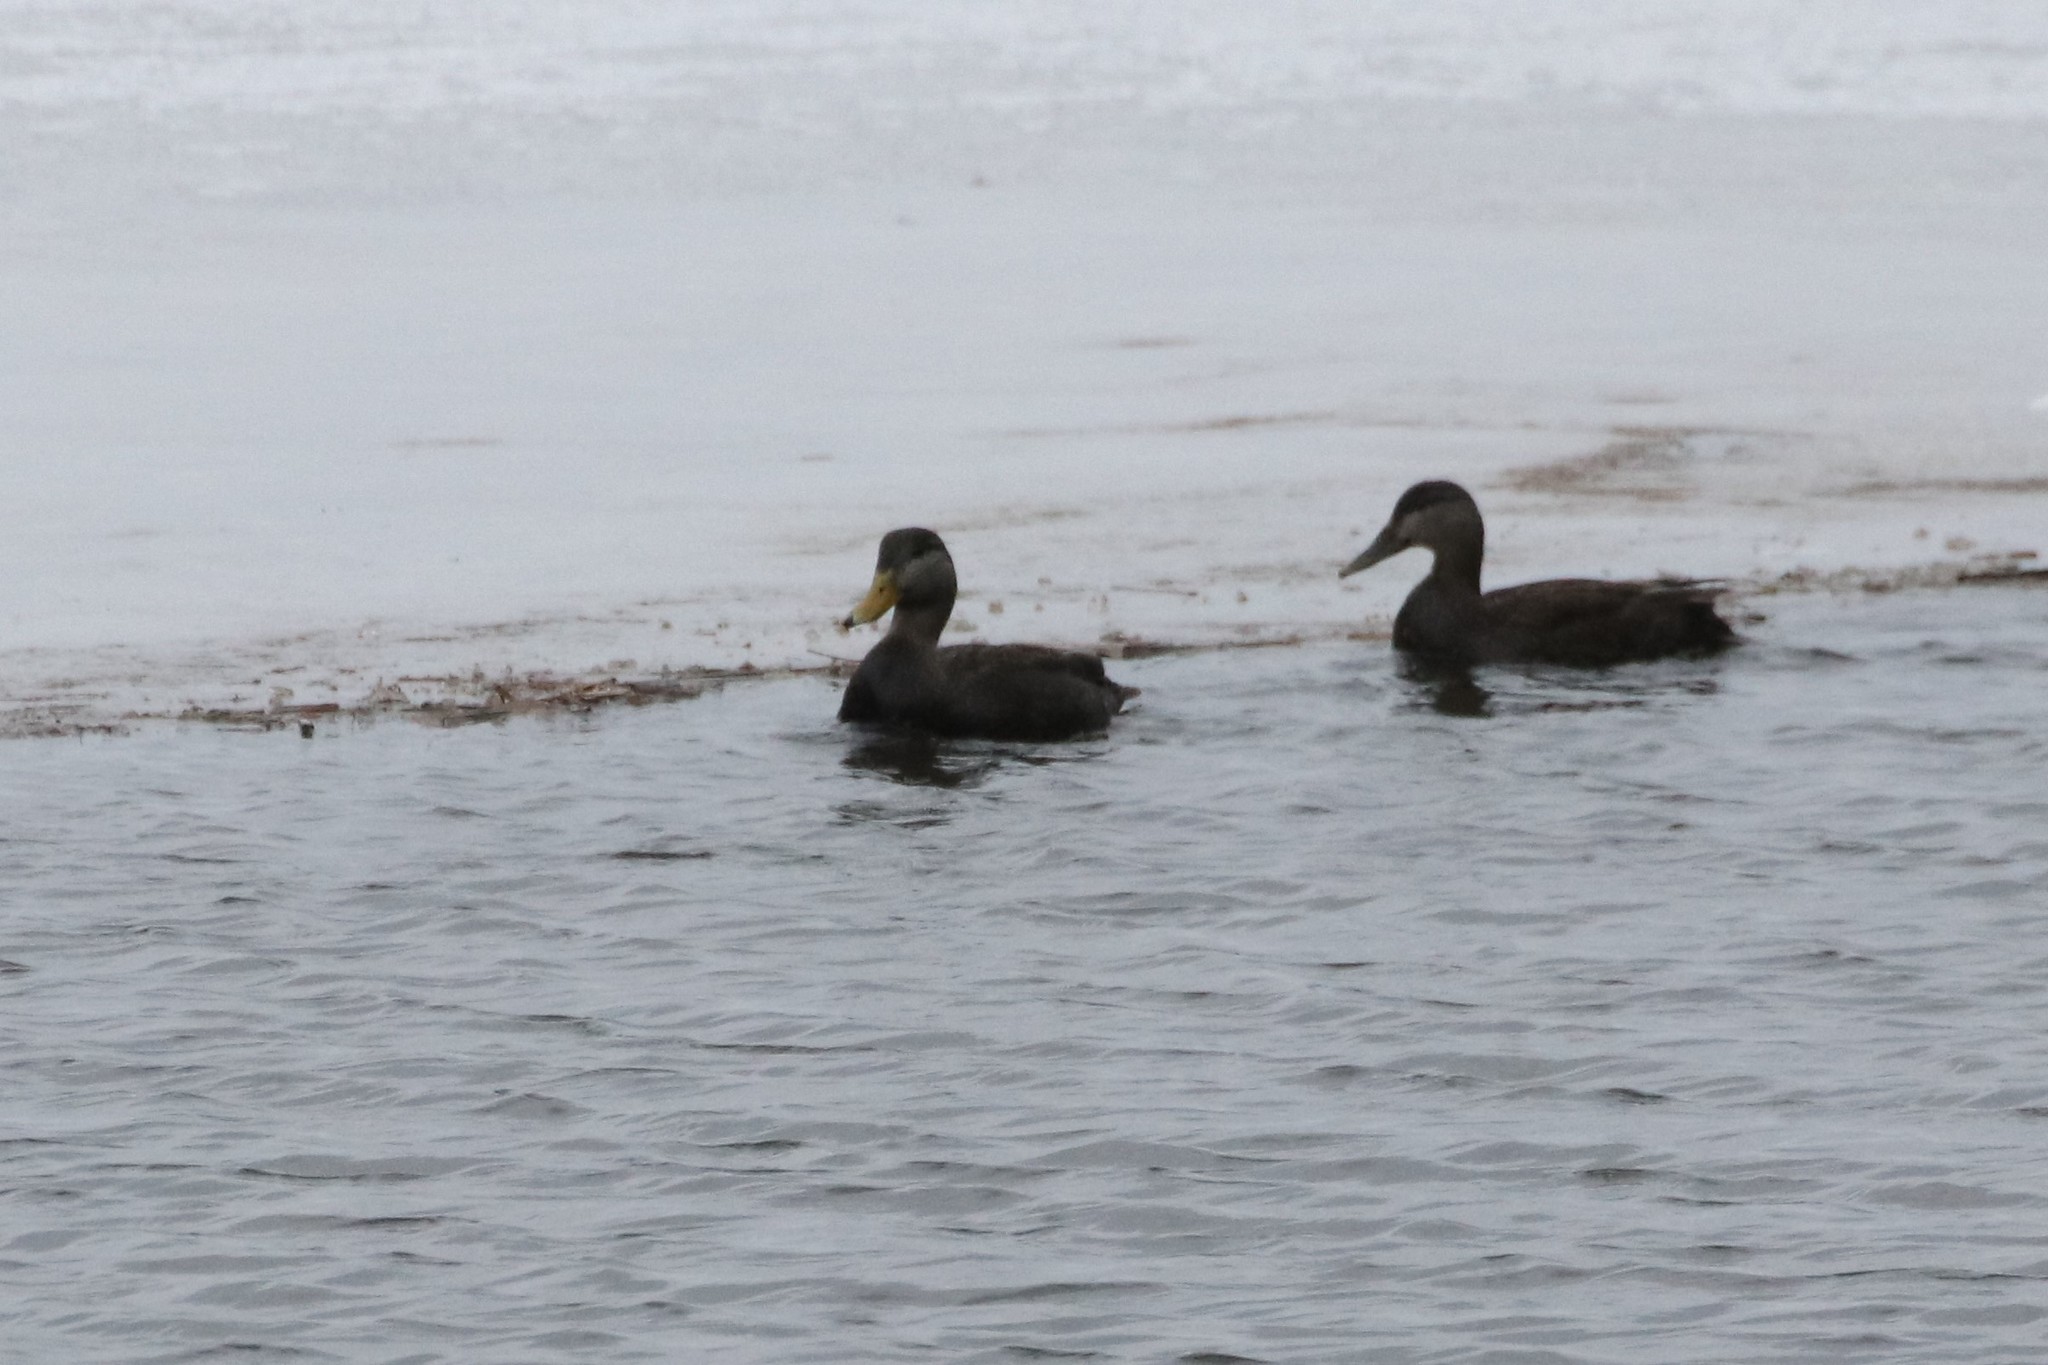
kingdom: Animalia
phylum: Chordata
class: Aves
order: Anseriformes
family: Anatidae
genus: Anas
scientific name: Anas rubripes
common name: American black duck
